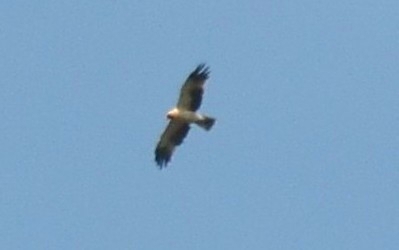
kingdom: Animalia
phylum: Chordata
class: Aves
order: Accipitriformes
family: Accipitridae
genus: Hieraaetus
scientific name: Hieraaetus pennatus
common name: Booted eagle
